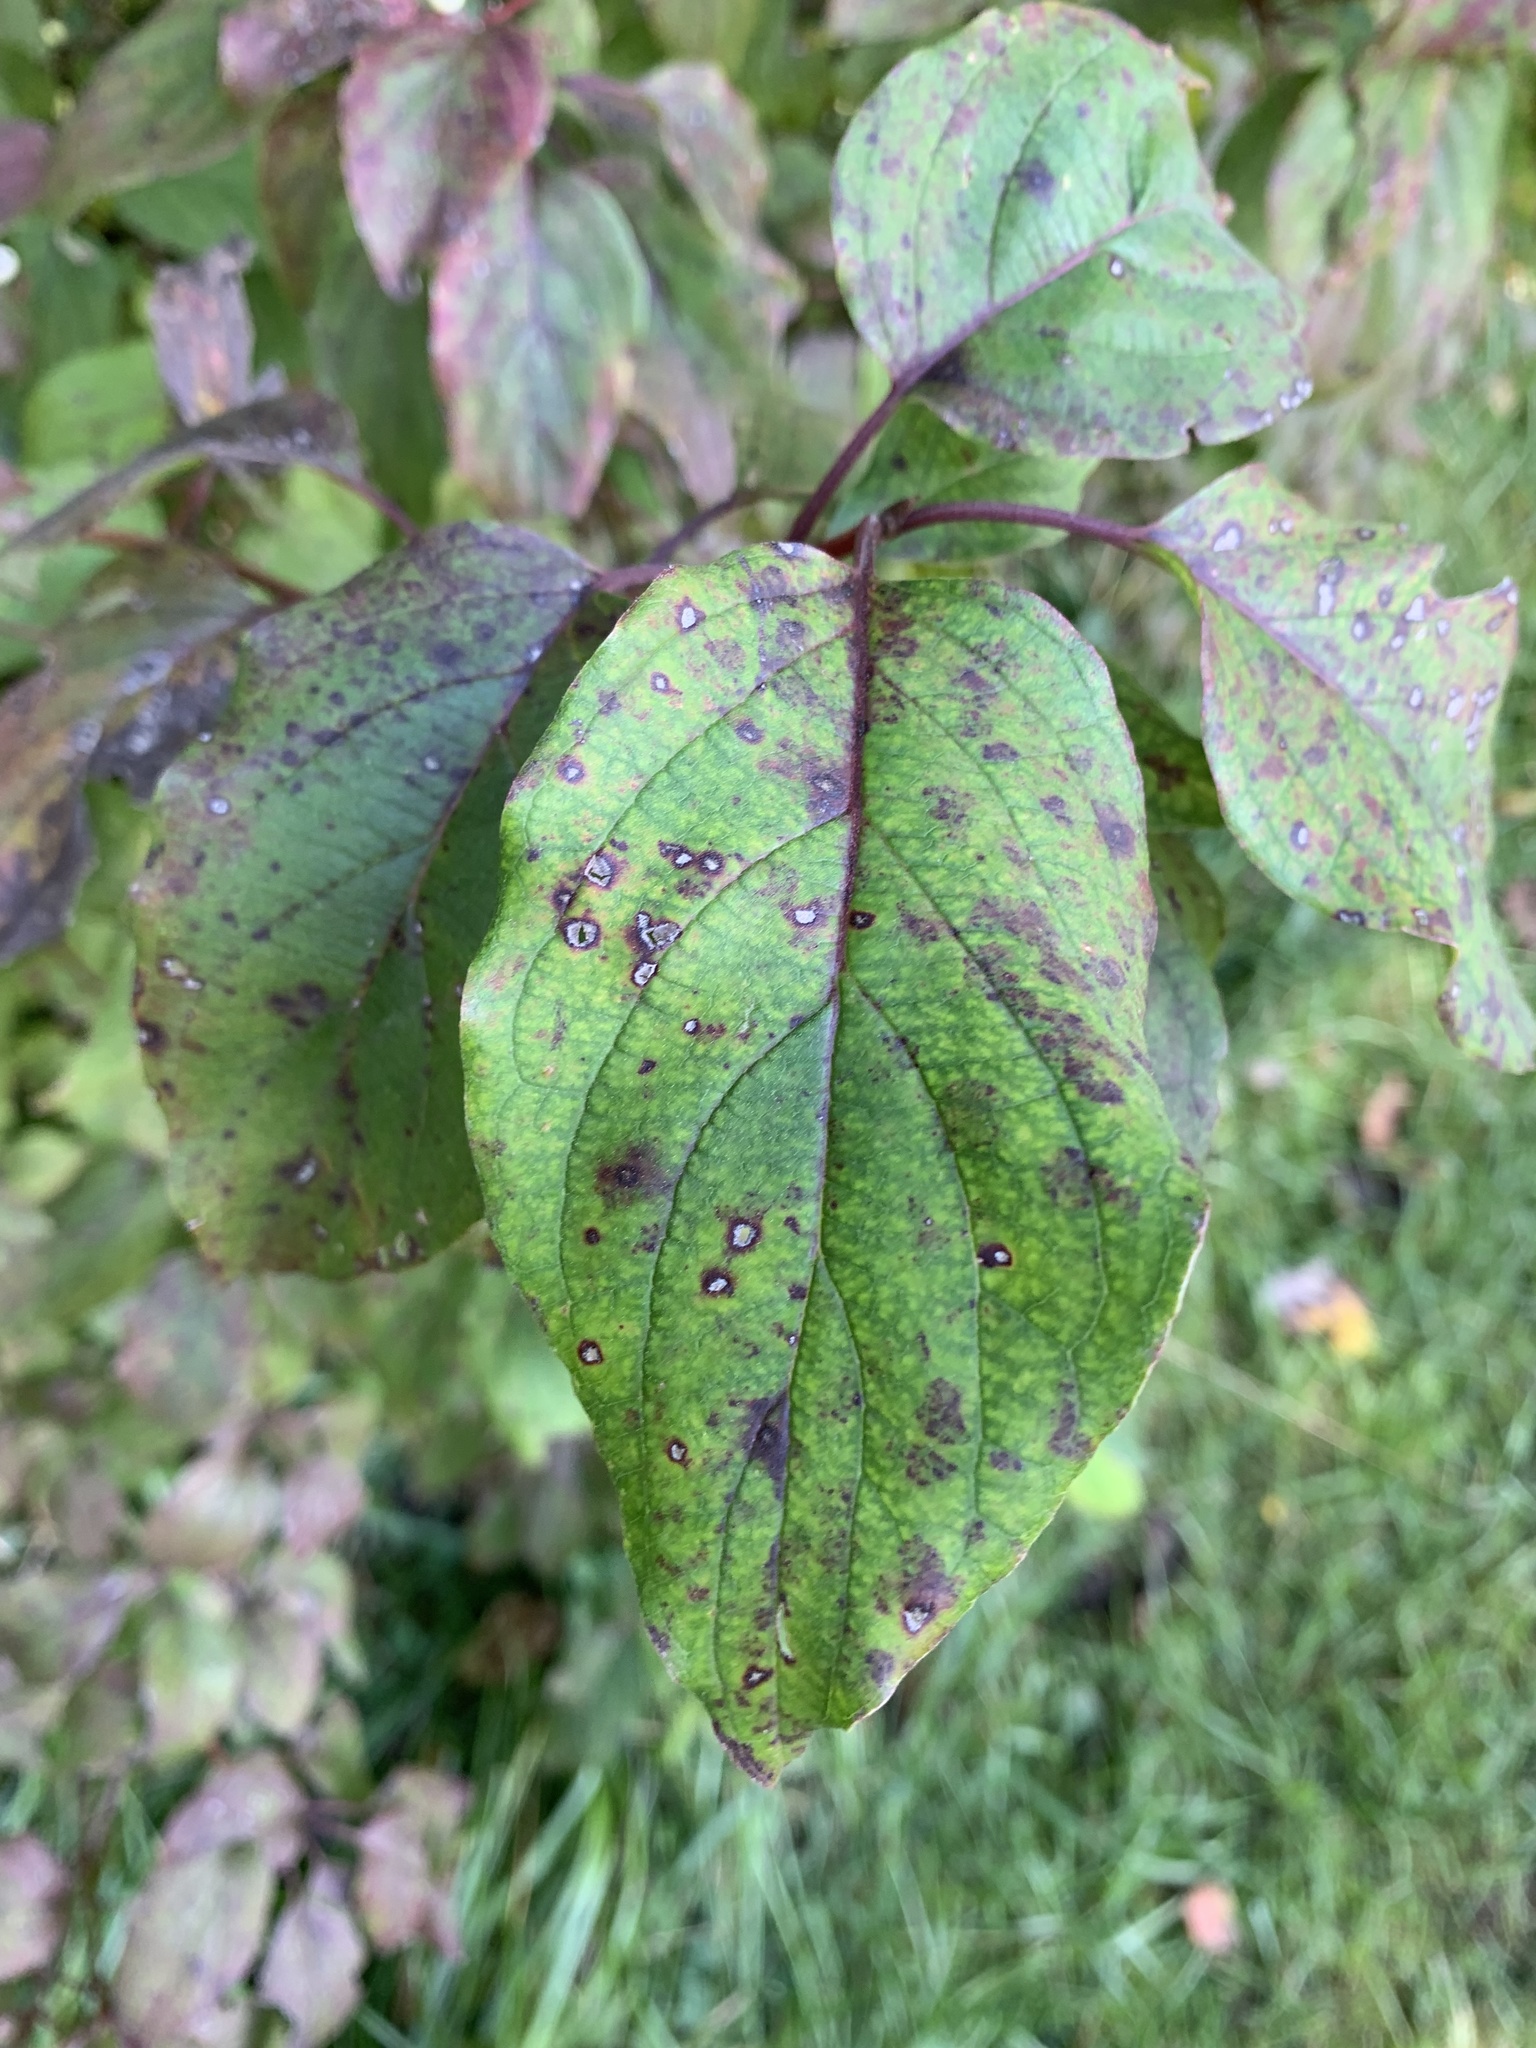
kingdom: Plantae
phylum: Tracheophyta
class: Magnoliopsida
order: Cornales
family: Cornaceae
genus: Cornus
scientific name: Cornus drummondii
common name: Rough-leaf dogwood
